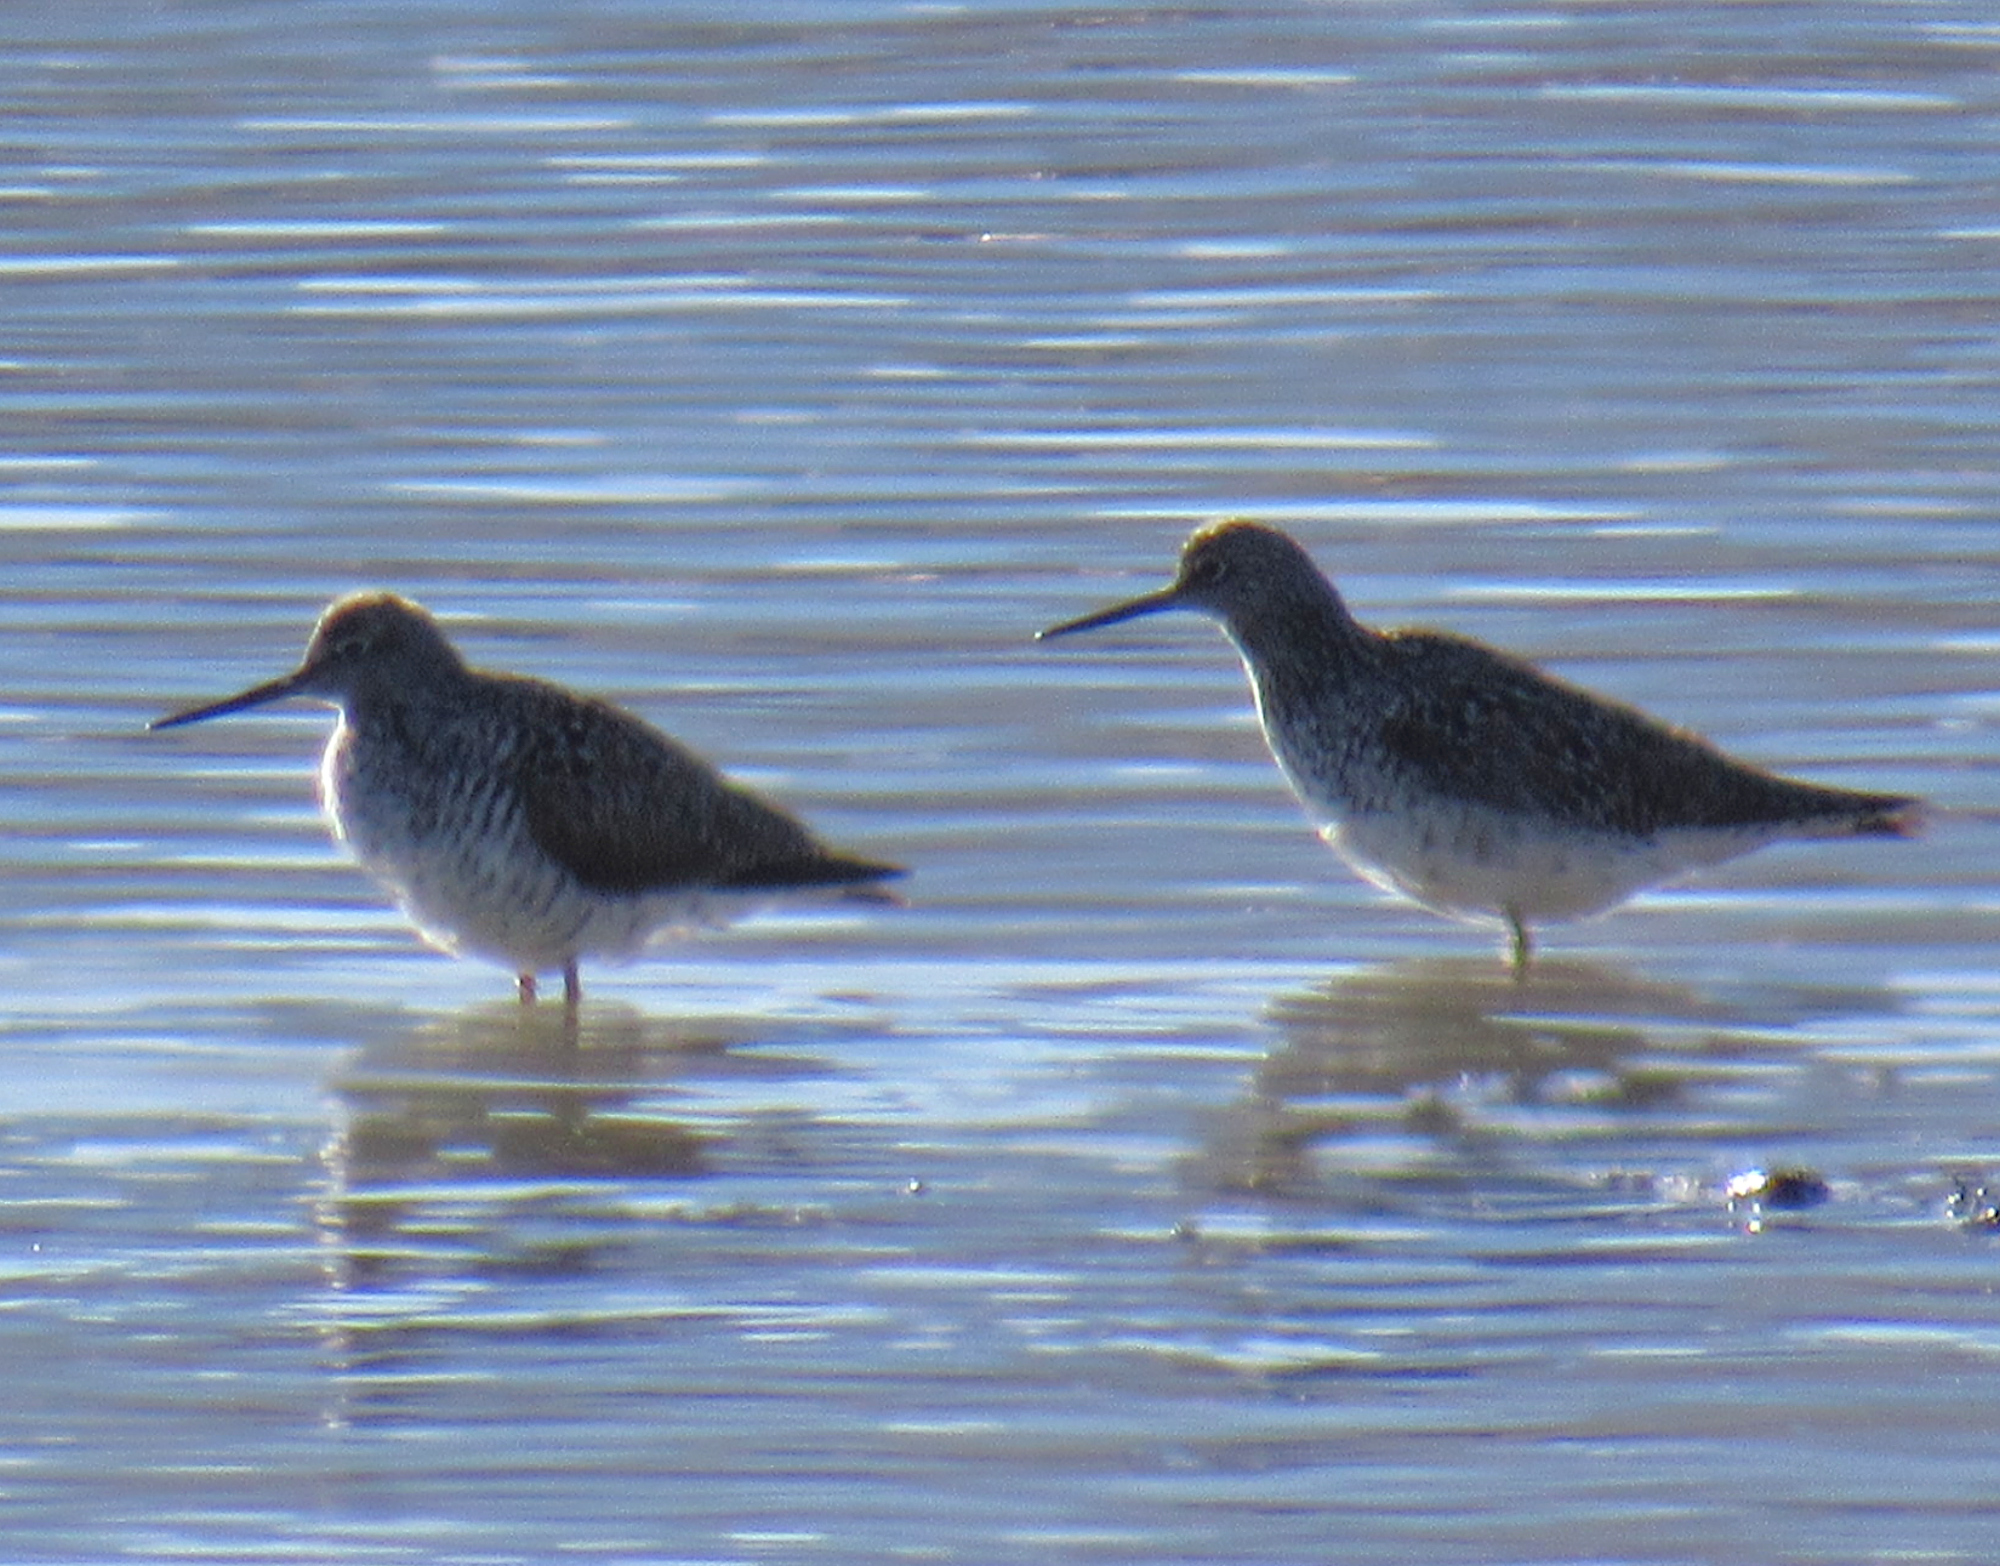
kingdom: Animalia
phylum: Chordata
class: Aves
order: Charadriiformes
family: Scolopacidae
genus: Tringa
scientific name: Tringa melanoleuca
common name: Greater yellowlegs
